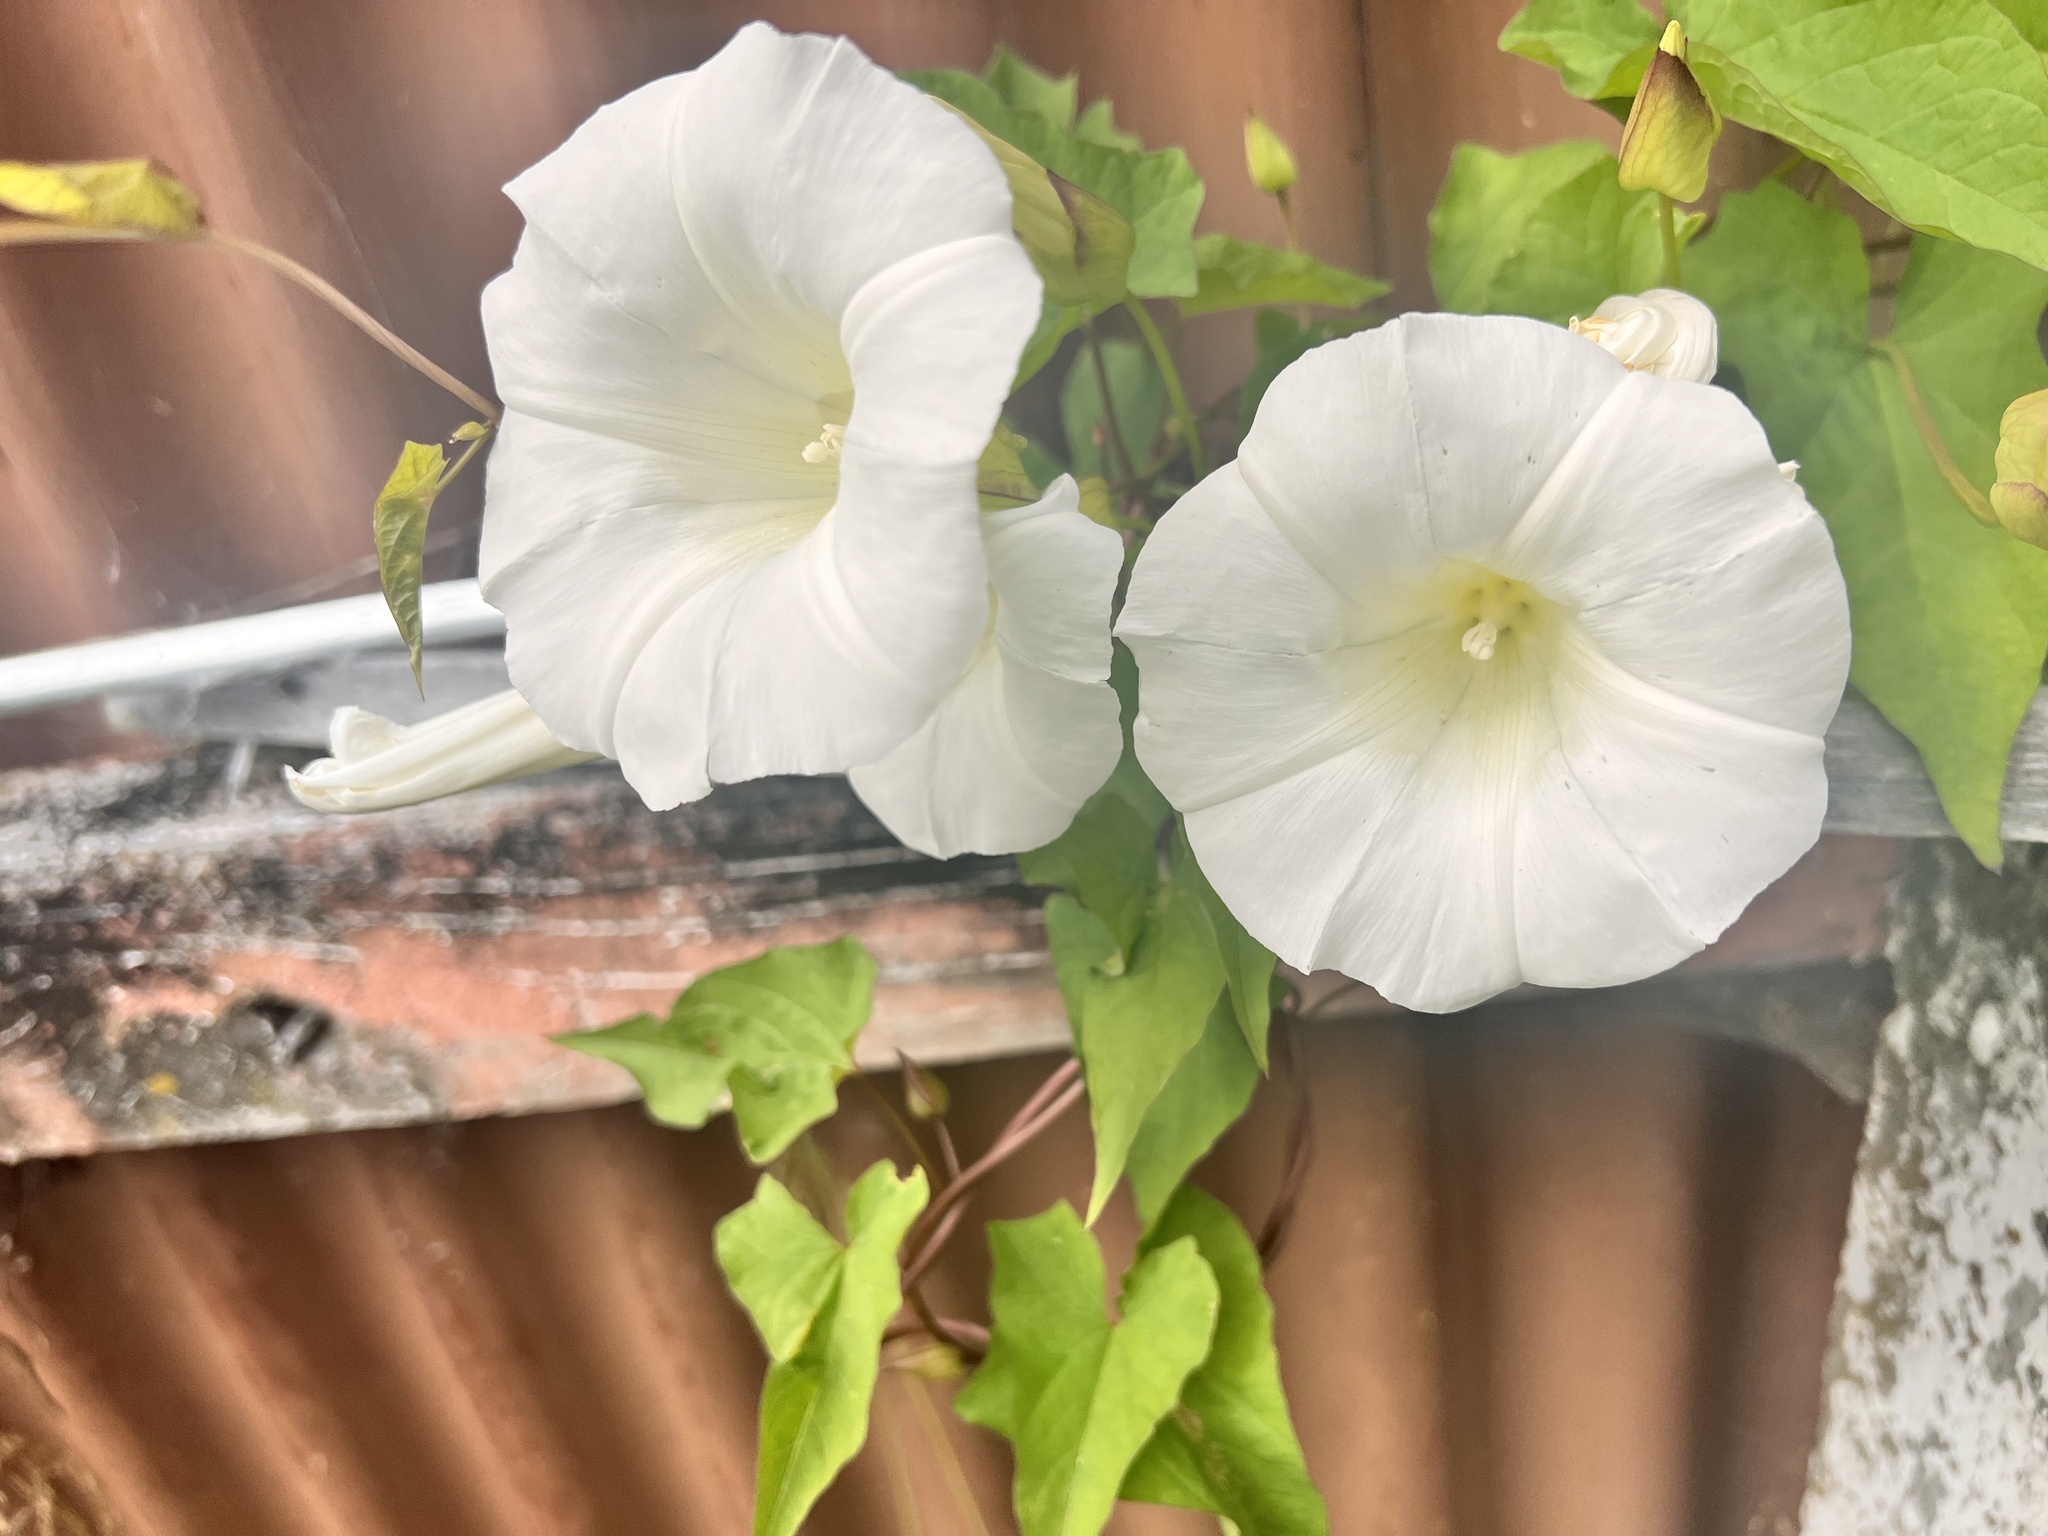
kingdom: Plantae
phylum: Tracheophyta
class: Magnoliopsida
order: Solanales
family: Convolvulaceae
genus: Calystegia
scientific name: Calystegia silvatica
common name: Large bindweed
